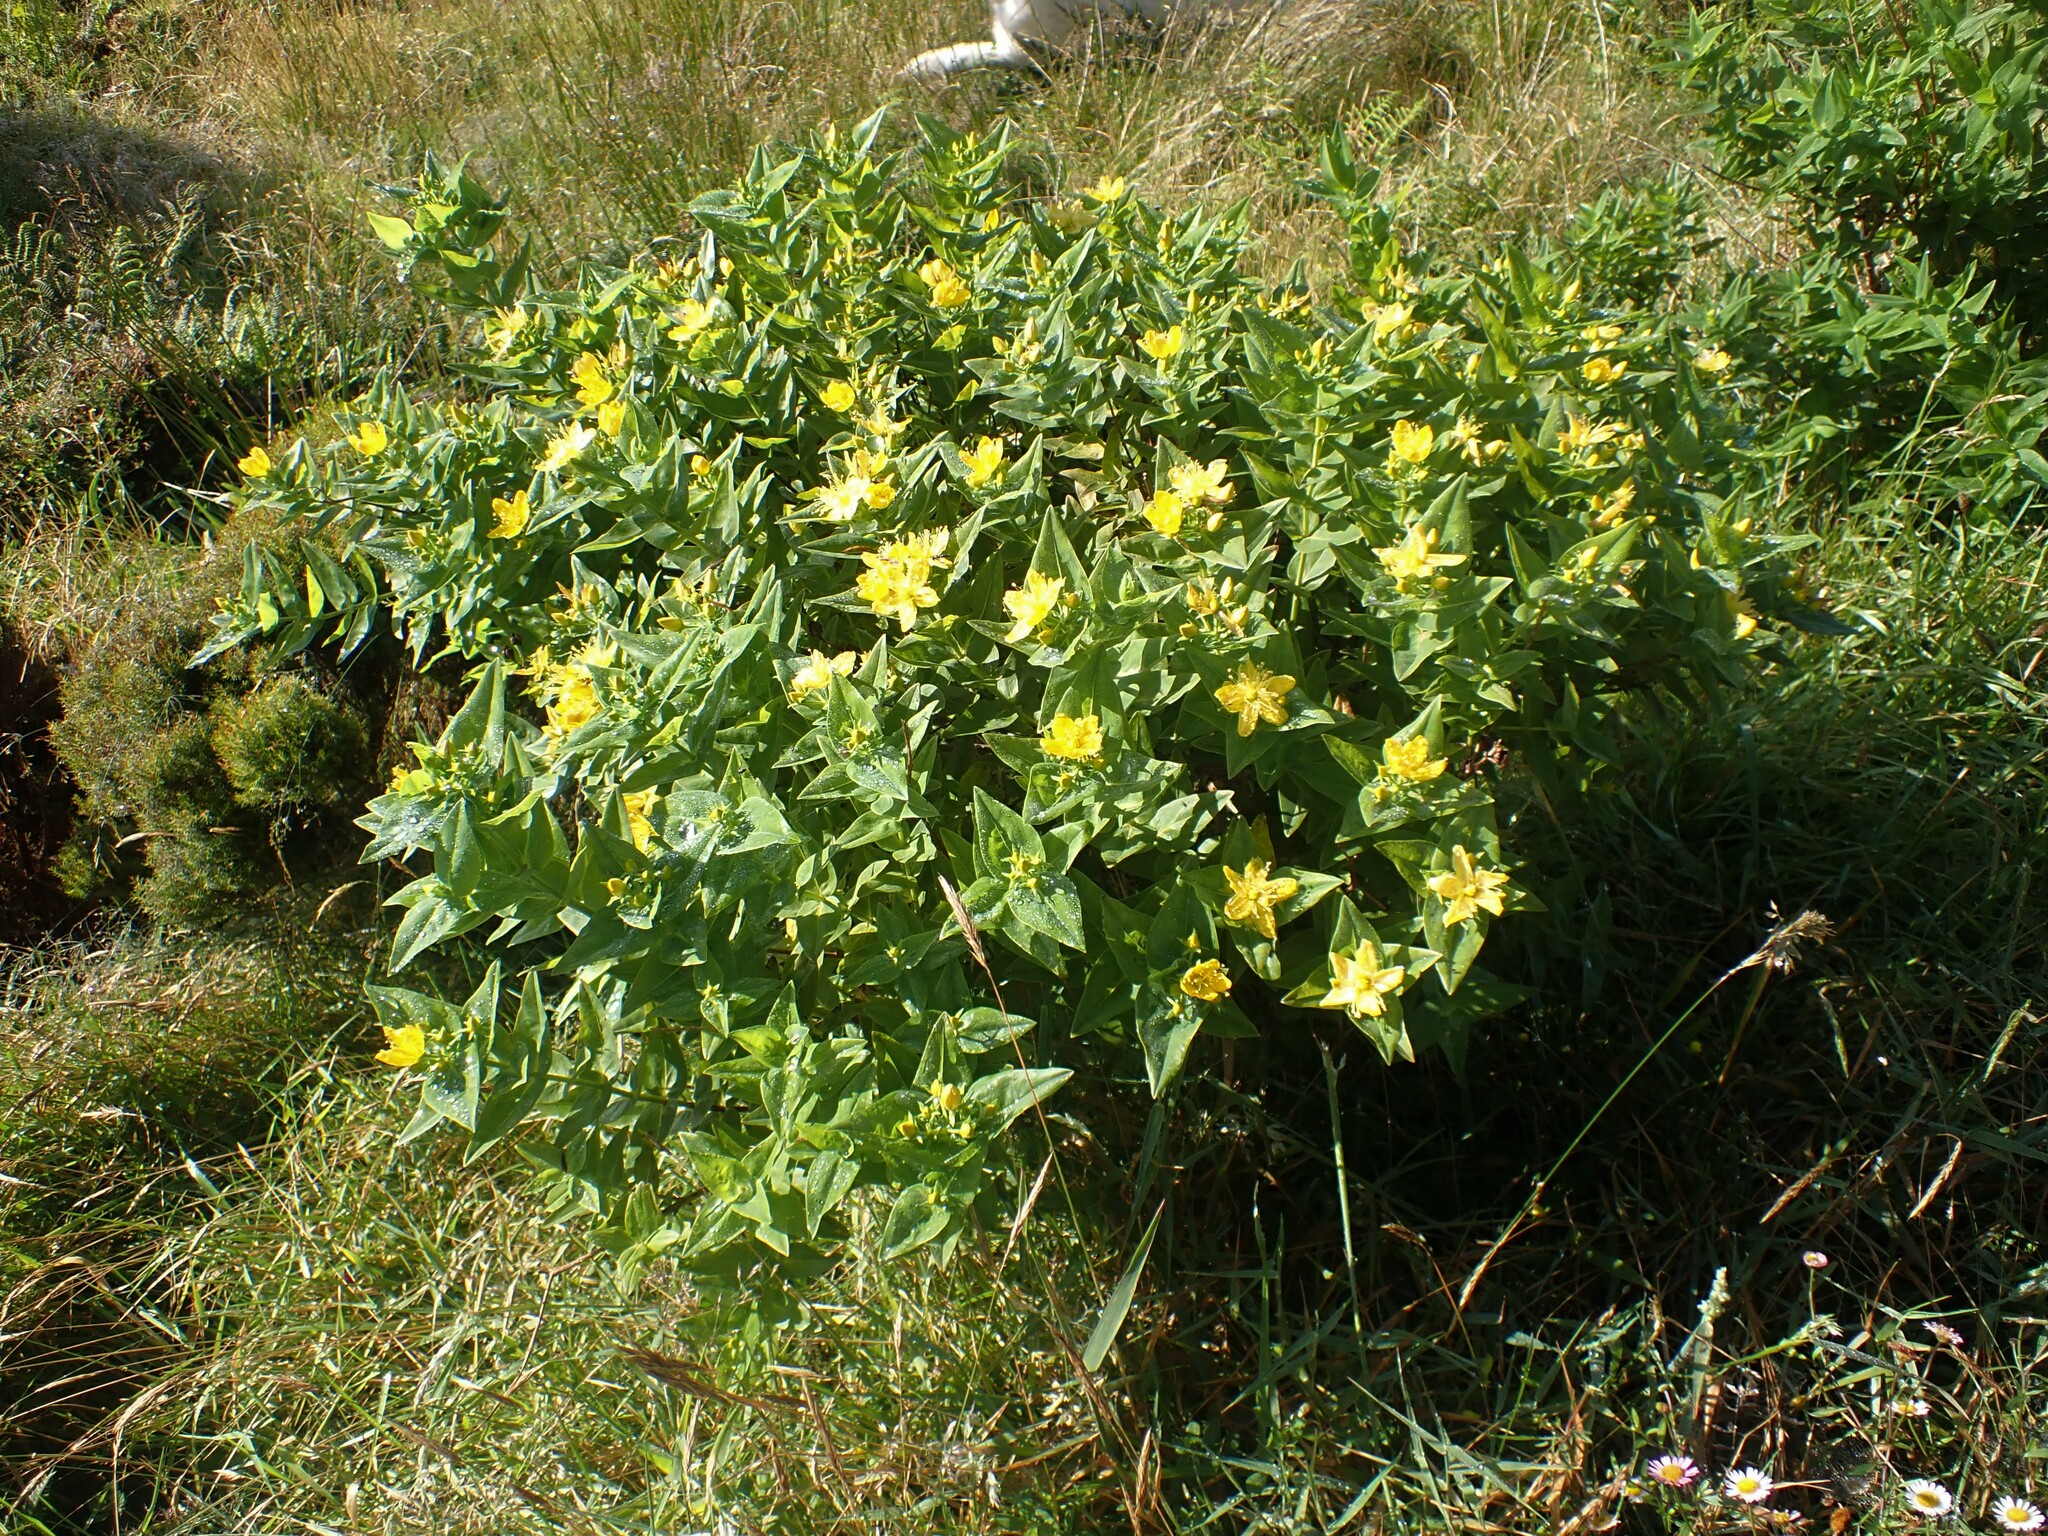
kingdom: Plantae
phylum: Tracheophyta
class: Magnoliopsida
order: Malpighiales
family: Hypericaceae
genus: Hypericum
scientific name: Hypericum foliosum
